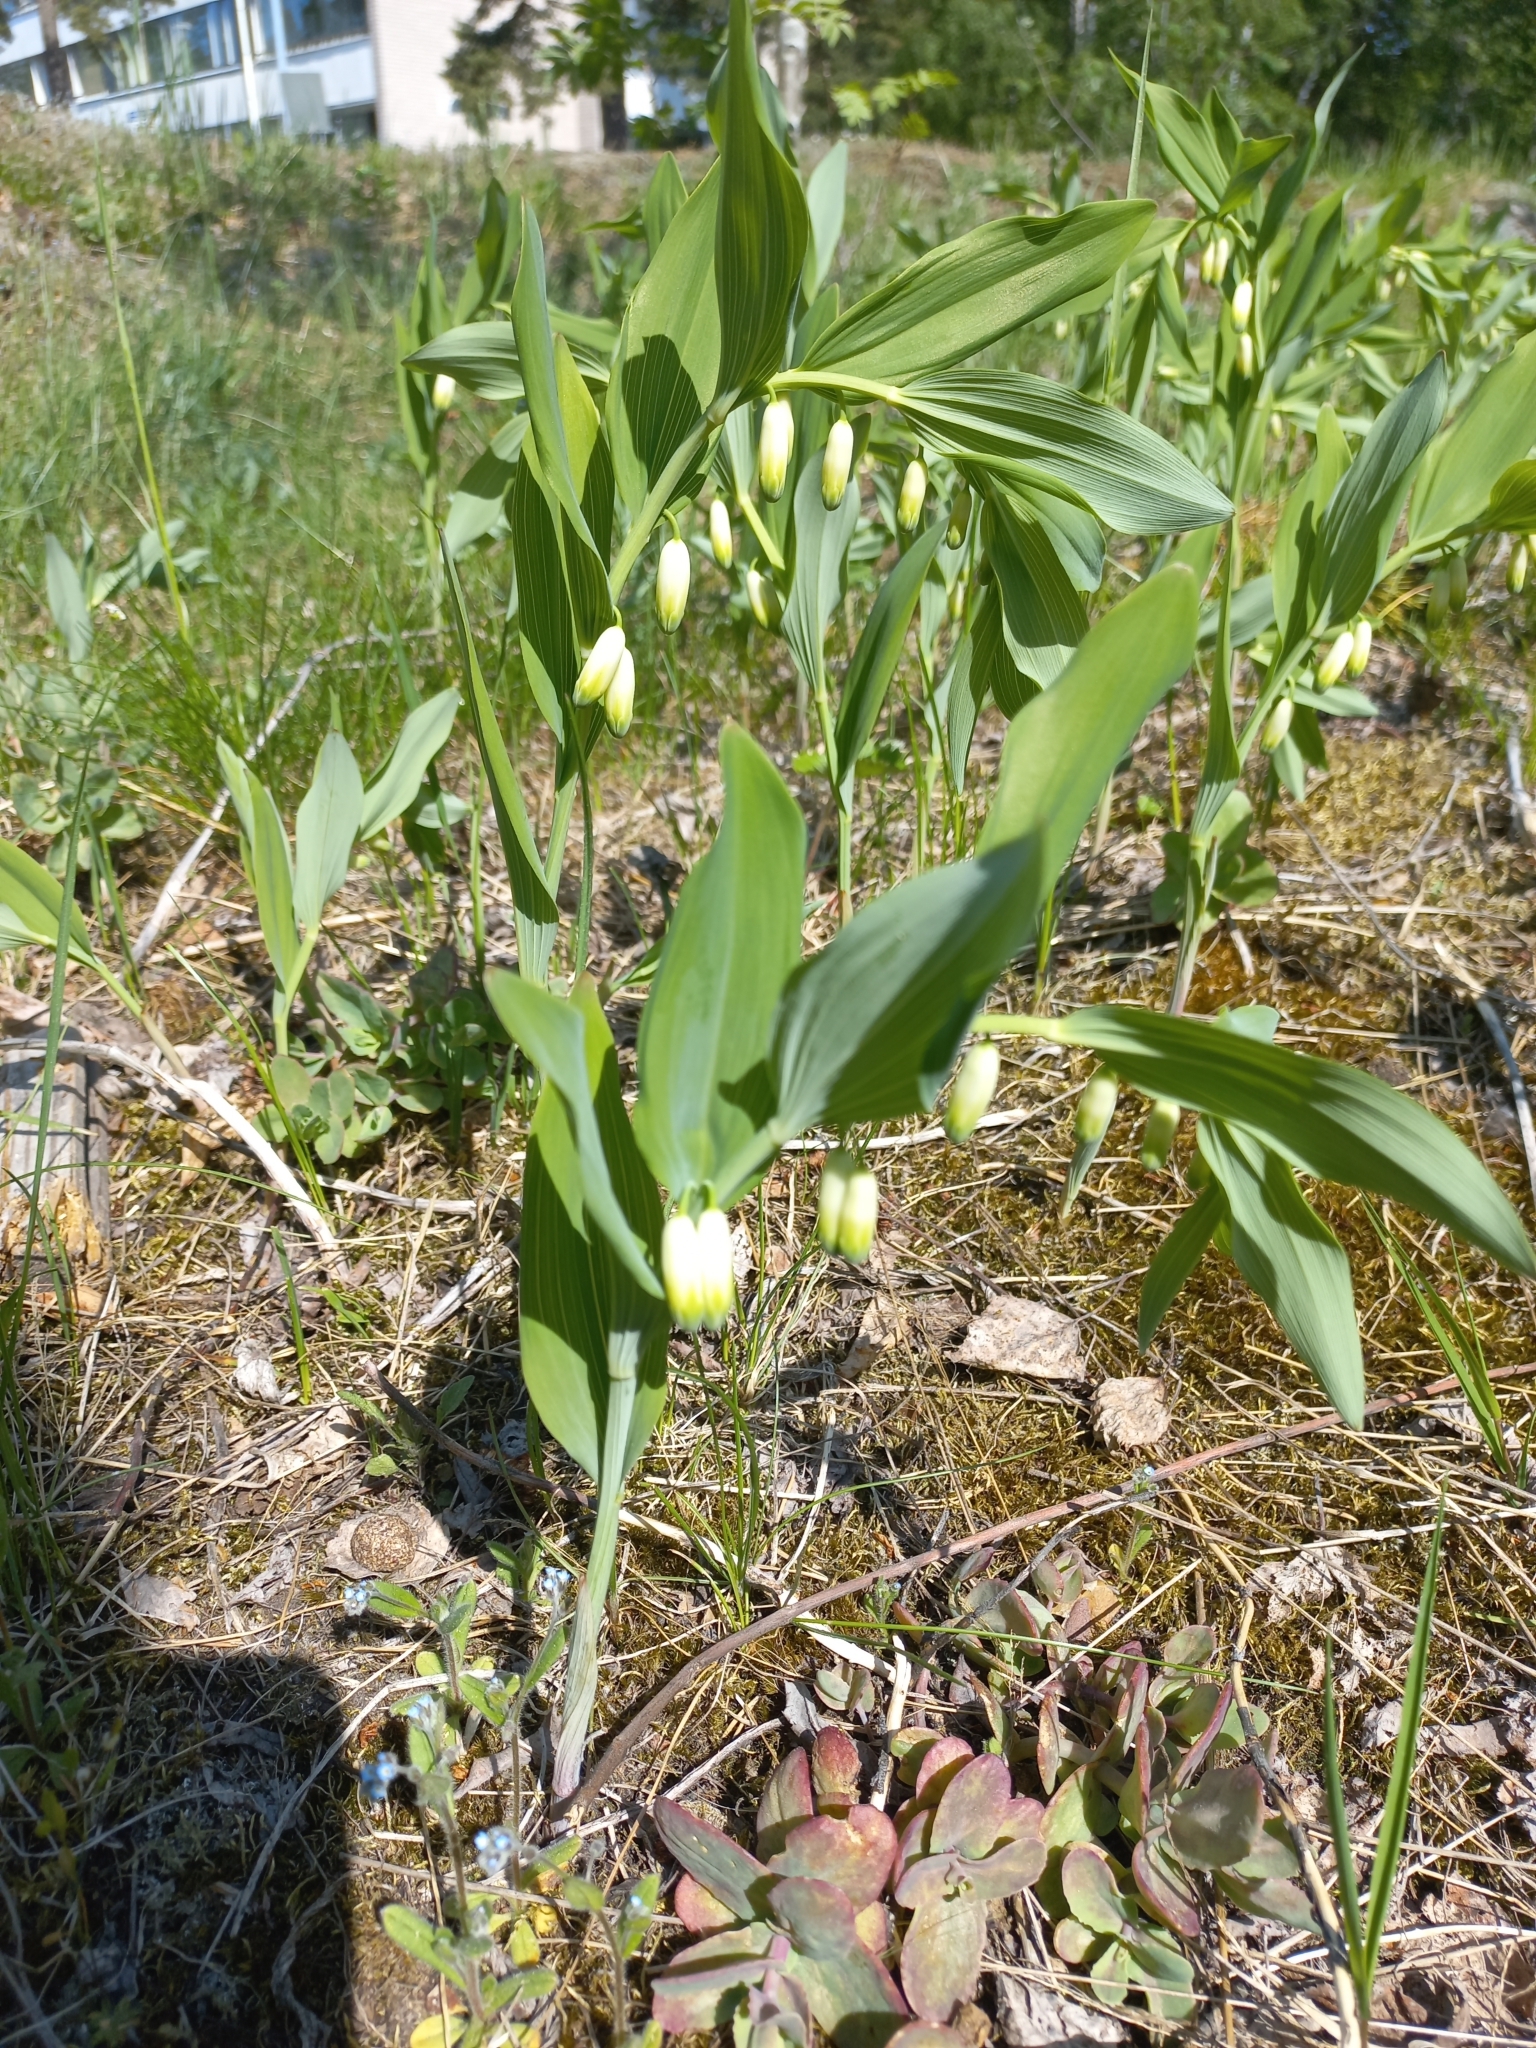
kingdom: Plantae
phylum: Tracheophyta
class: Liliopsida
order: Asparagales
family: Asparagaceae
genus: Polygonatum
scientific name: Polygonatum odoratum
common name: Angular solomon's-seal
